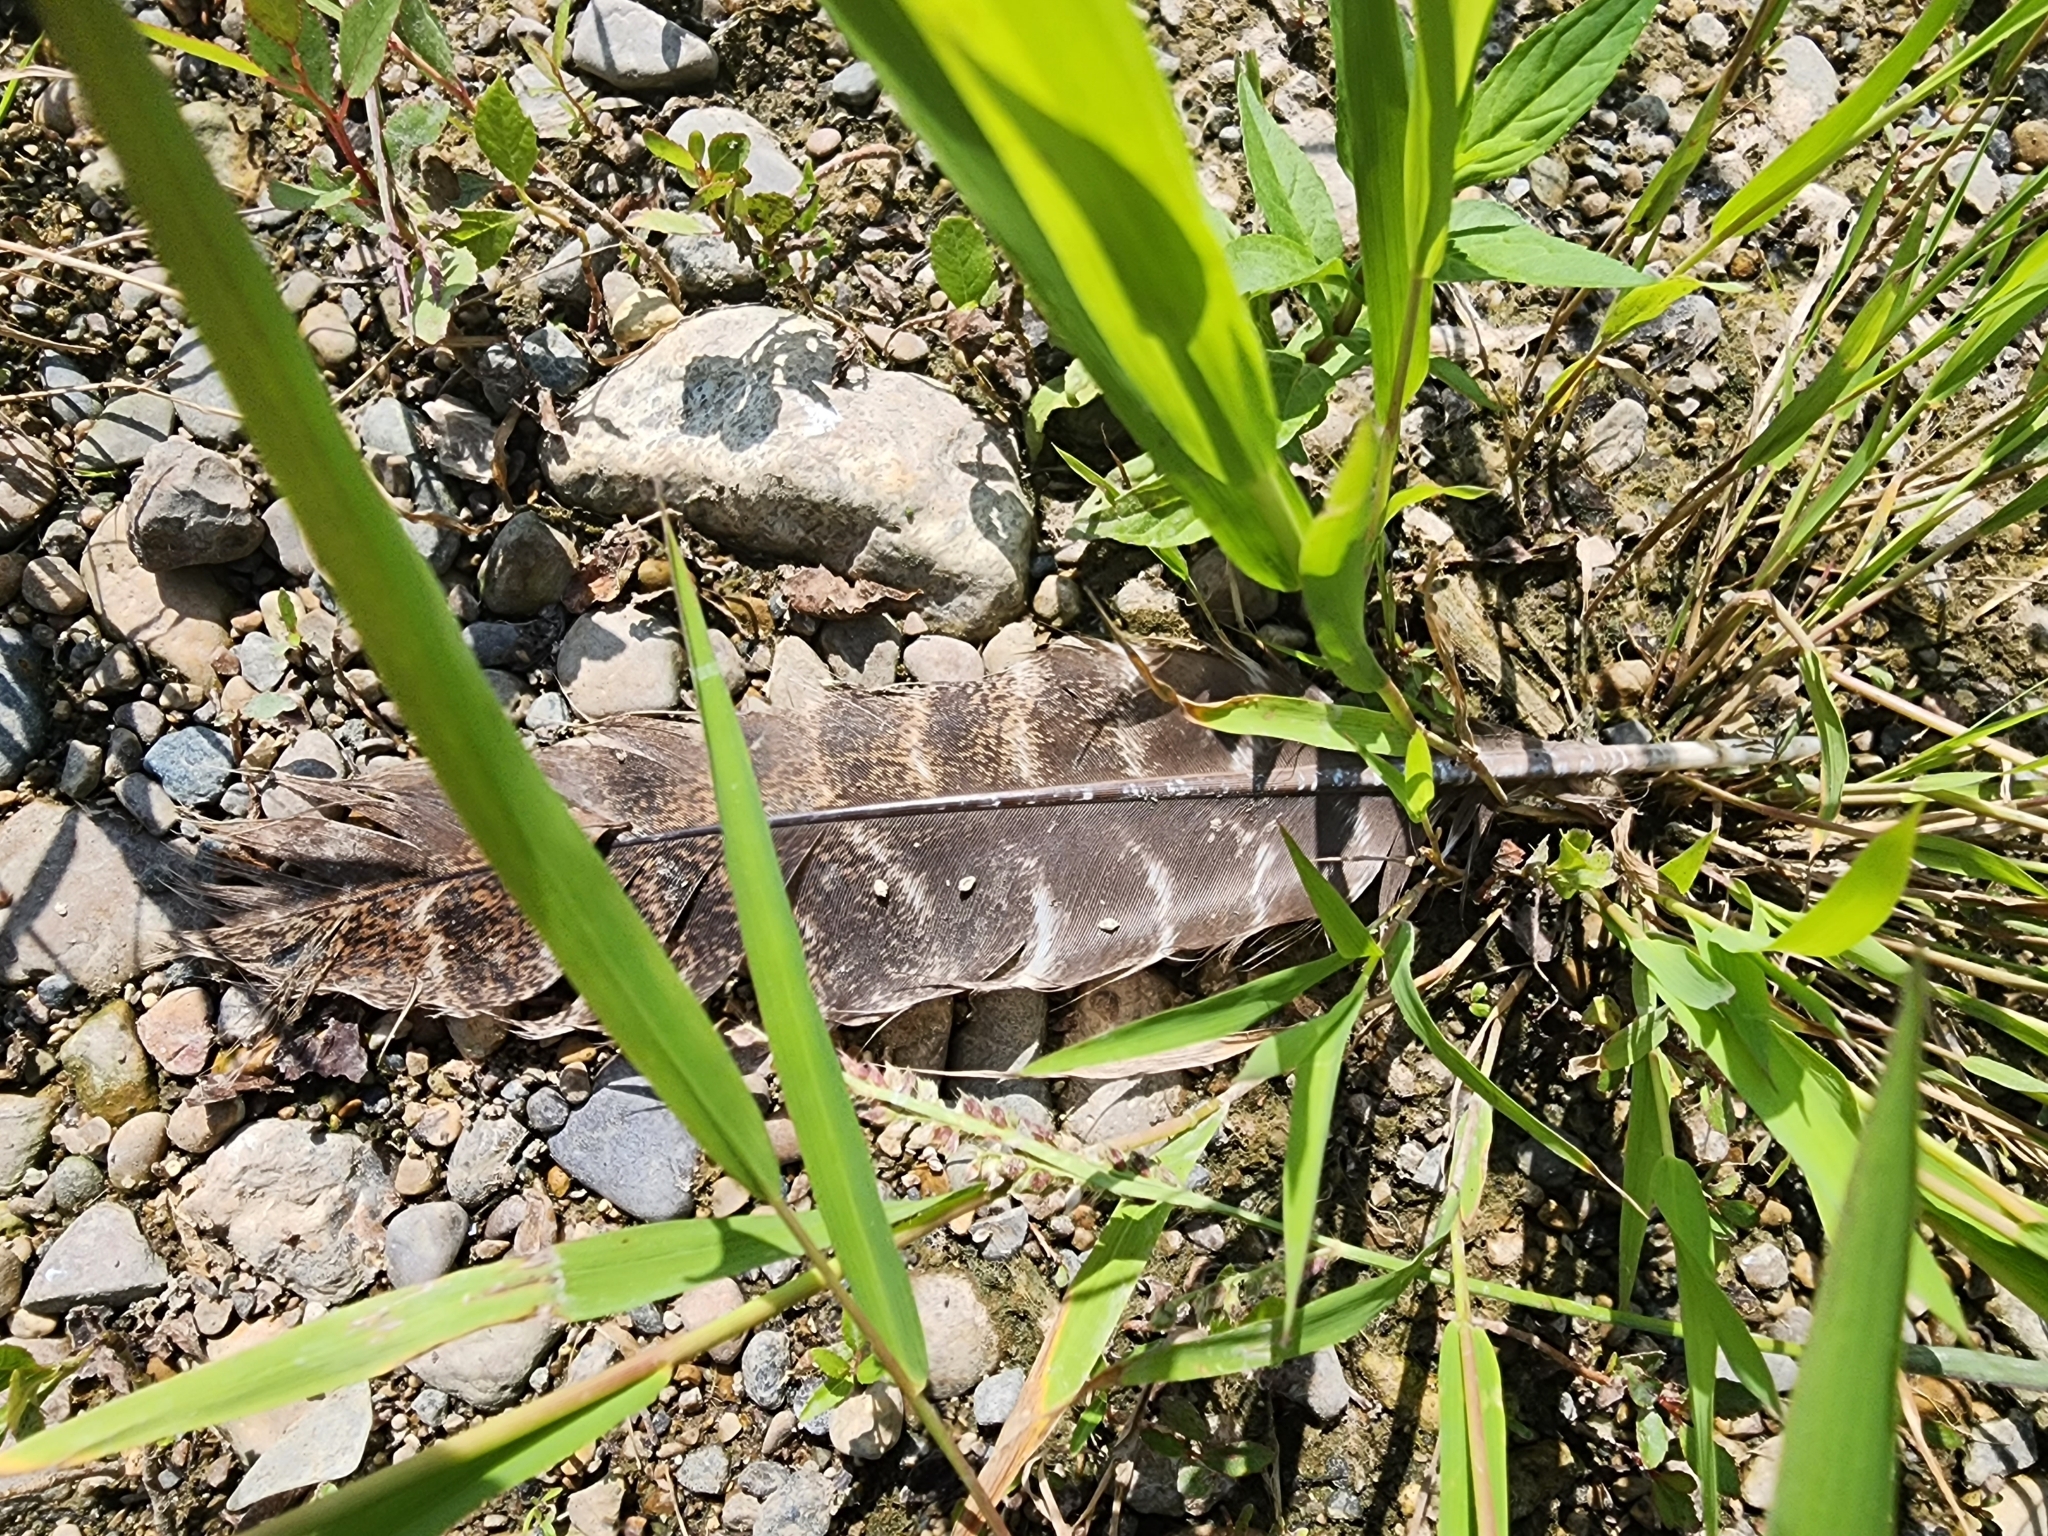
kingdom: Animalia
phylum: Chordata
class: Aves
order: Galliformes
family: Phasianidae
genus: Meleagris
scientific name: Meleagris gallopavo
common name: Wild turkey
